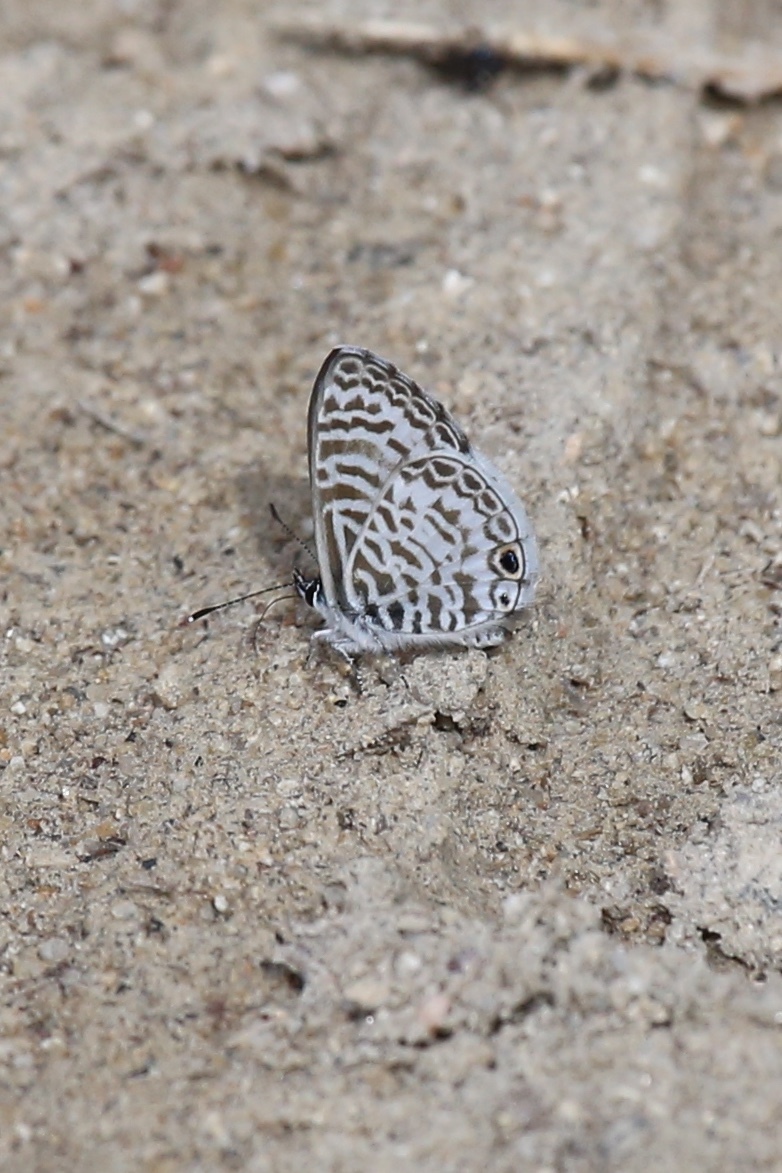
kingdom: Animalia
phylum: Arthropoda
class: Insecta
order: Lepidoptera
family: Lycaenidae
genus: Leptotes
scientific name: Leptotes theonus
